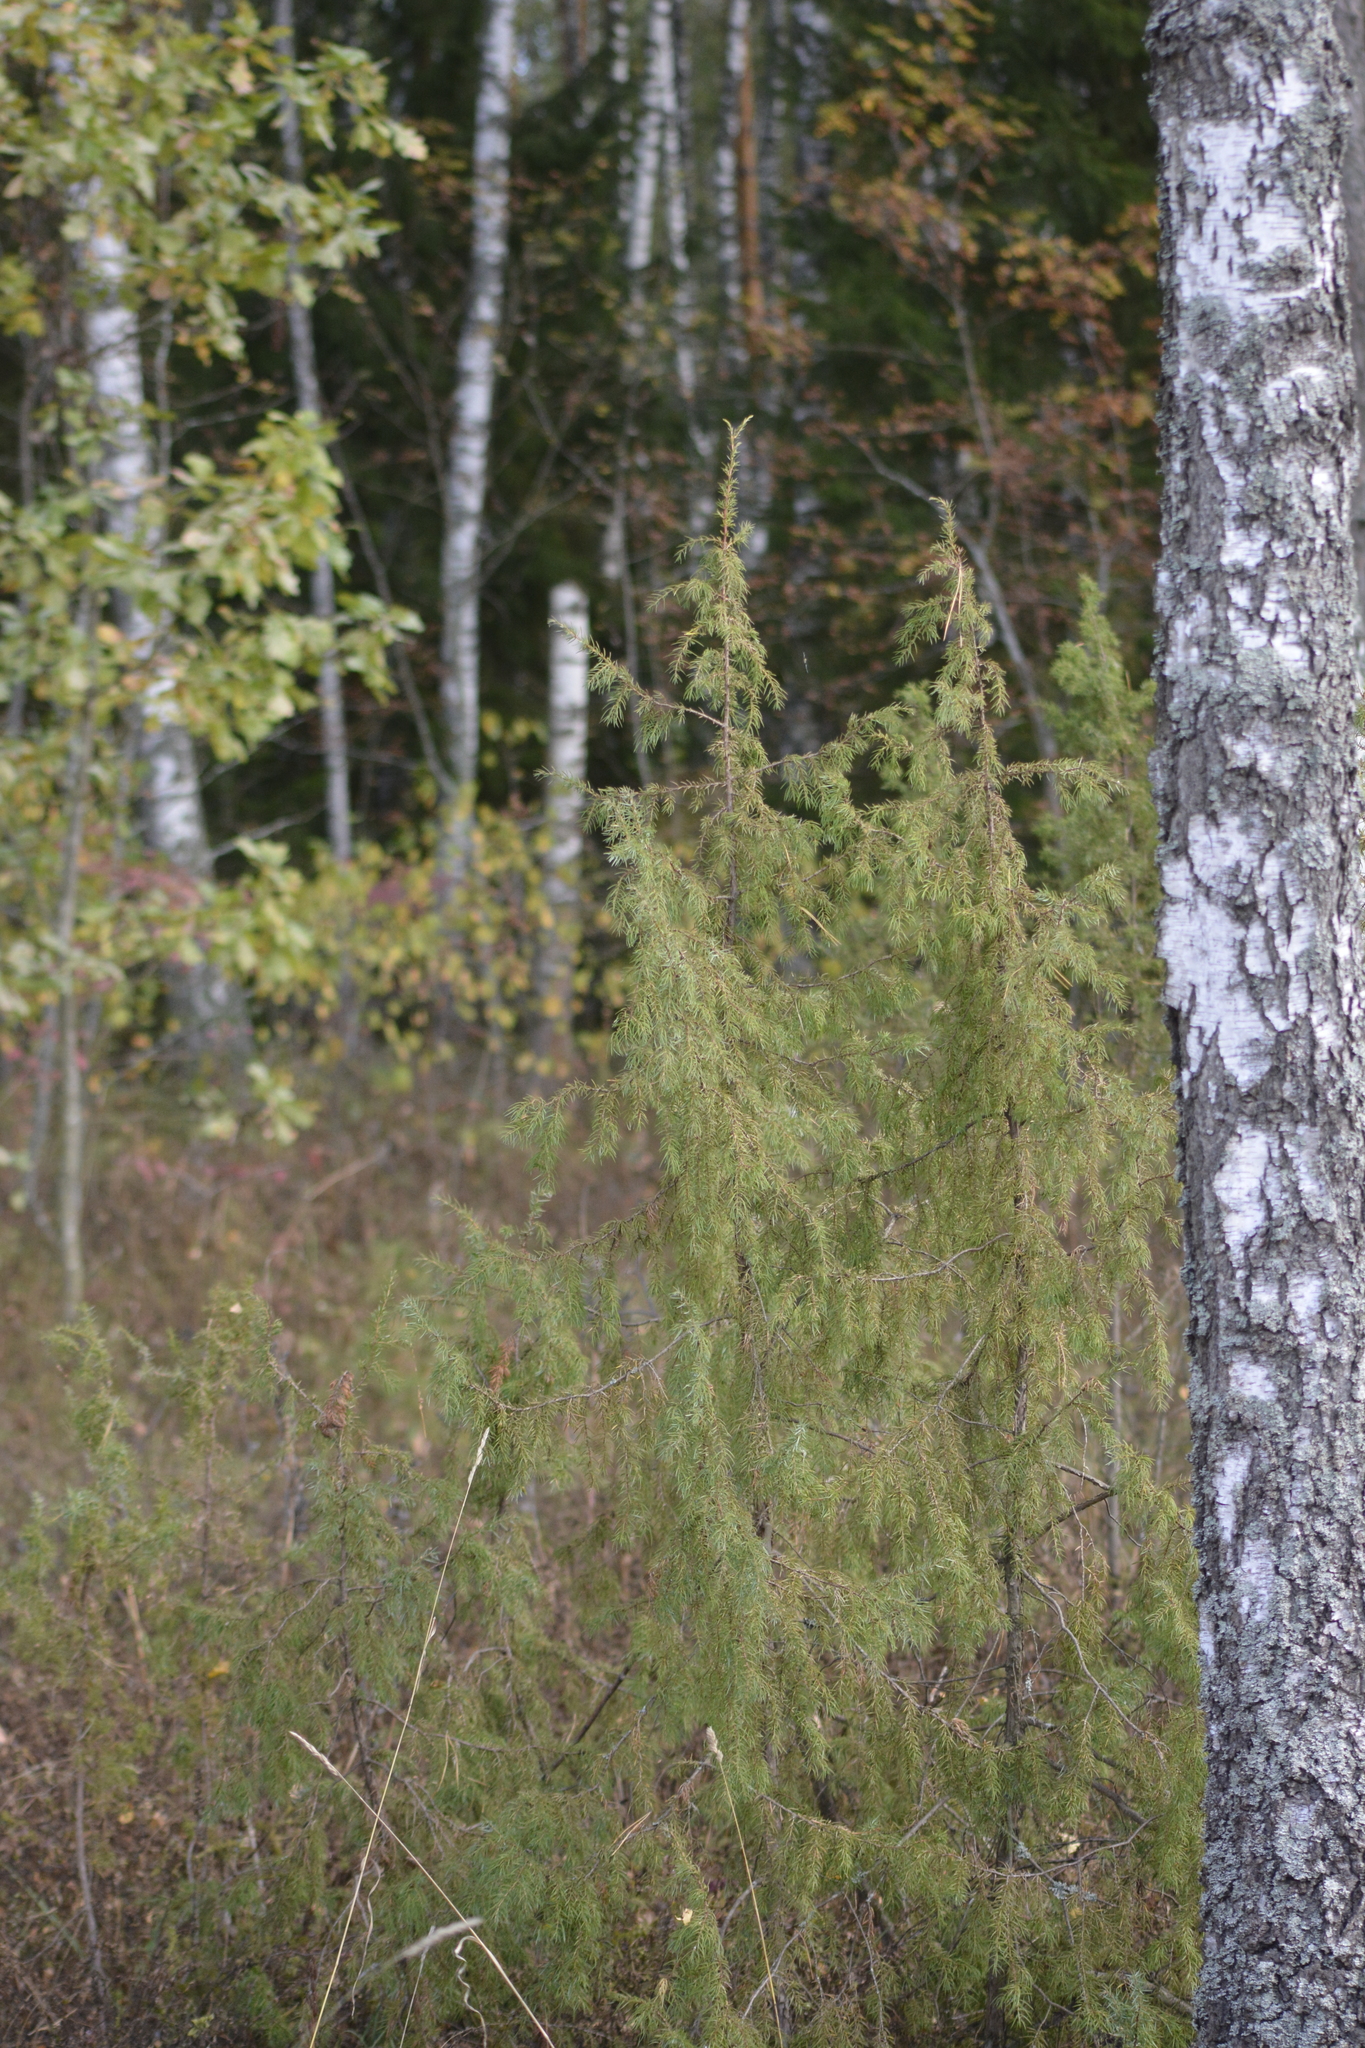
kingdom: Plantae
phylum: Tracheophyta
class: Pinopsida
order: Pinales
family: Cupressaceae
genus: Juniperus
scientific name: Juniperus communis
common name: Common juniper
